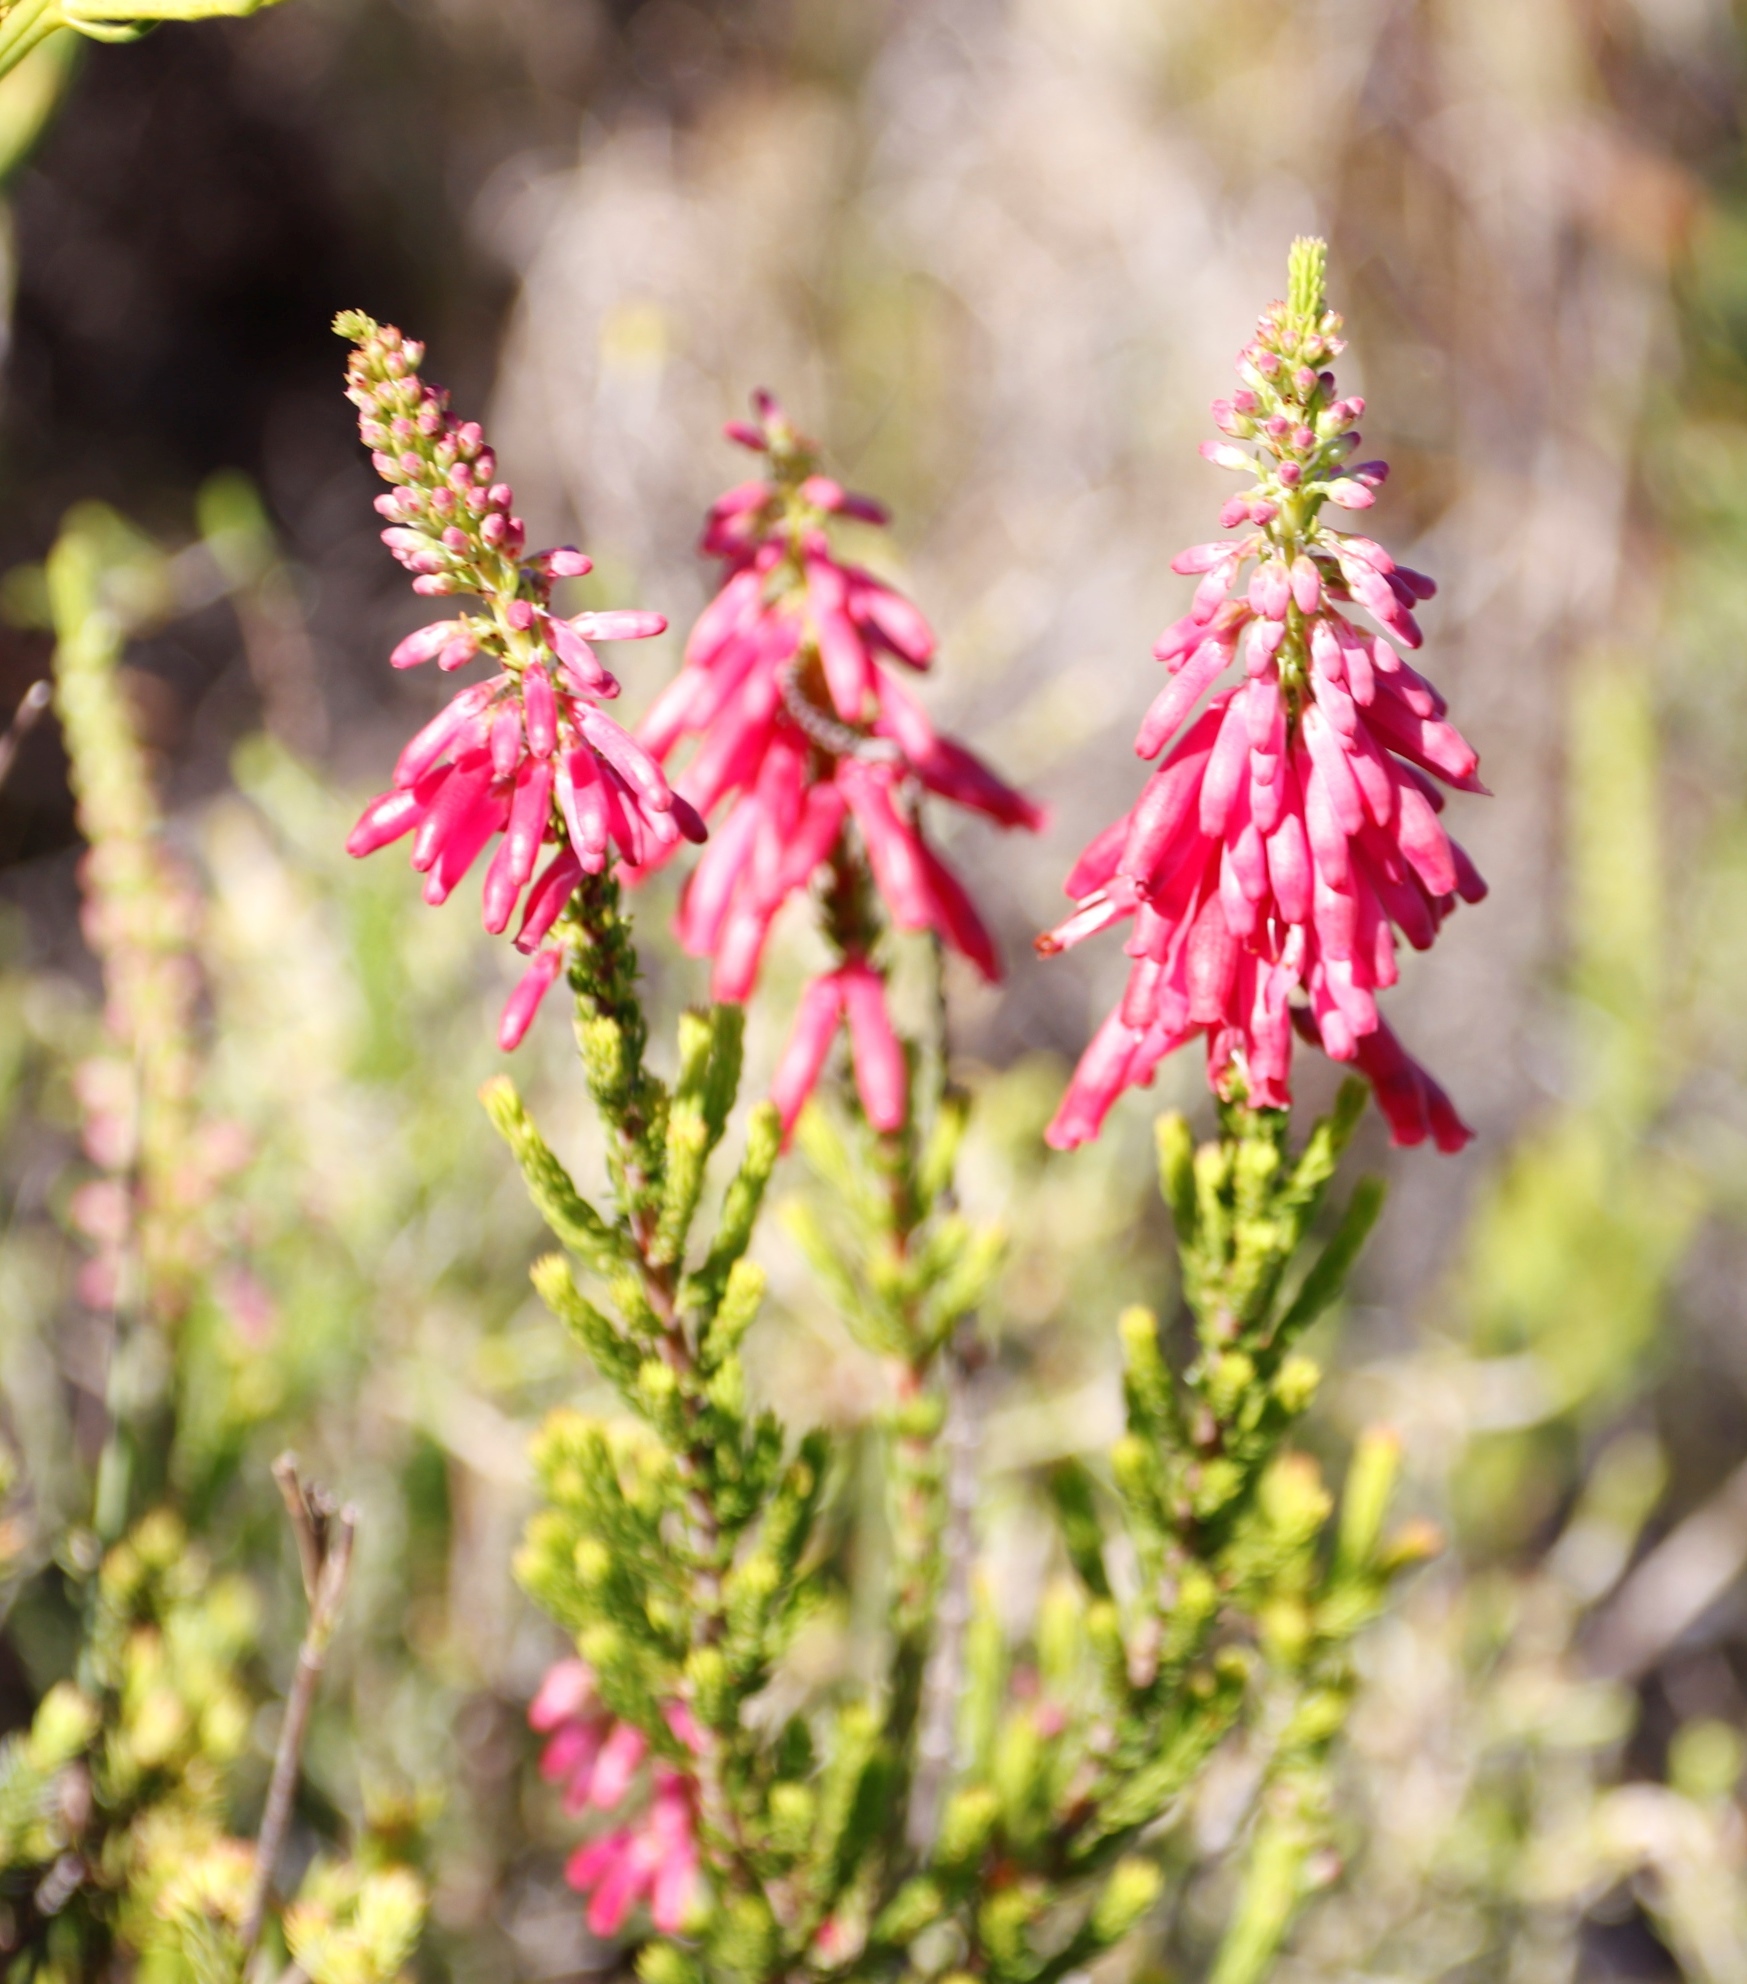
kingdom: Plantae
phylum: Tracheophyta
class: Magnoliopsida
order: Ericales
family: Ericaceae
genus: Erica
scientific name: Erica mammosa
